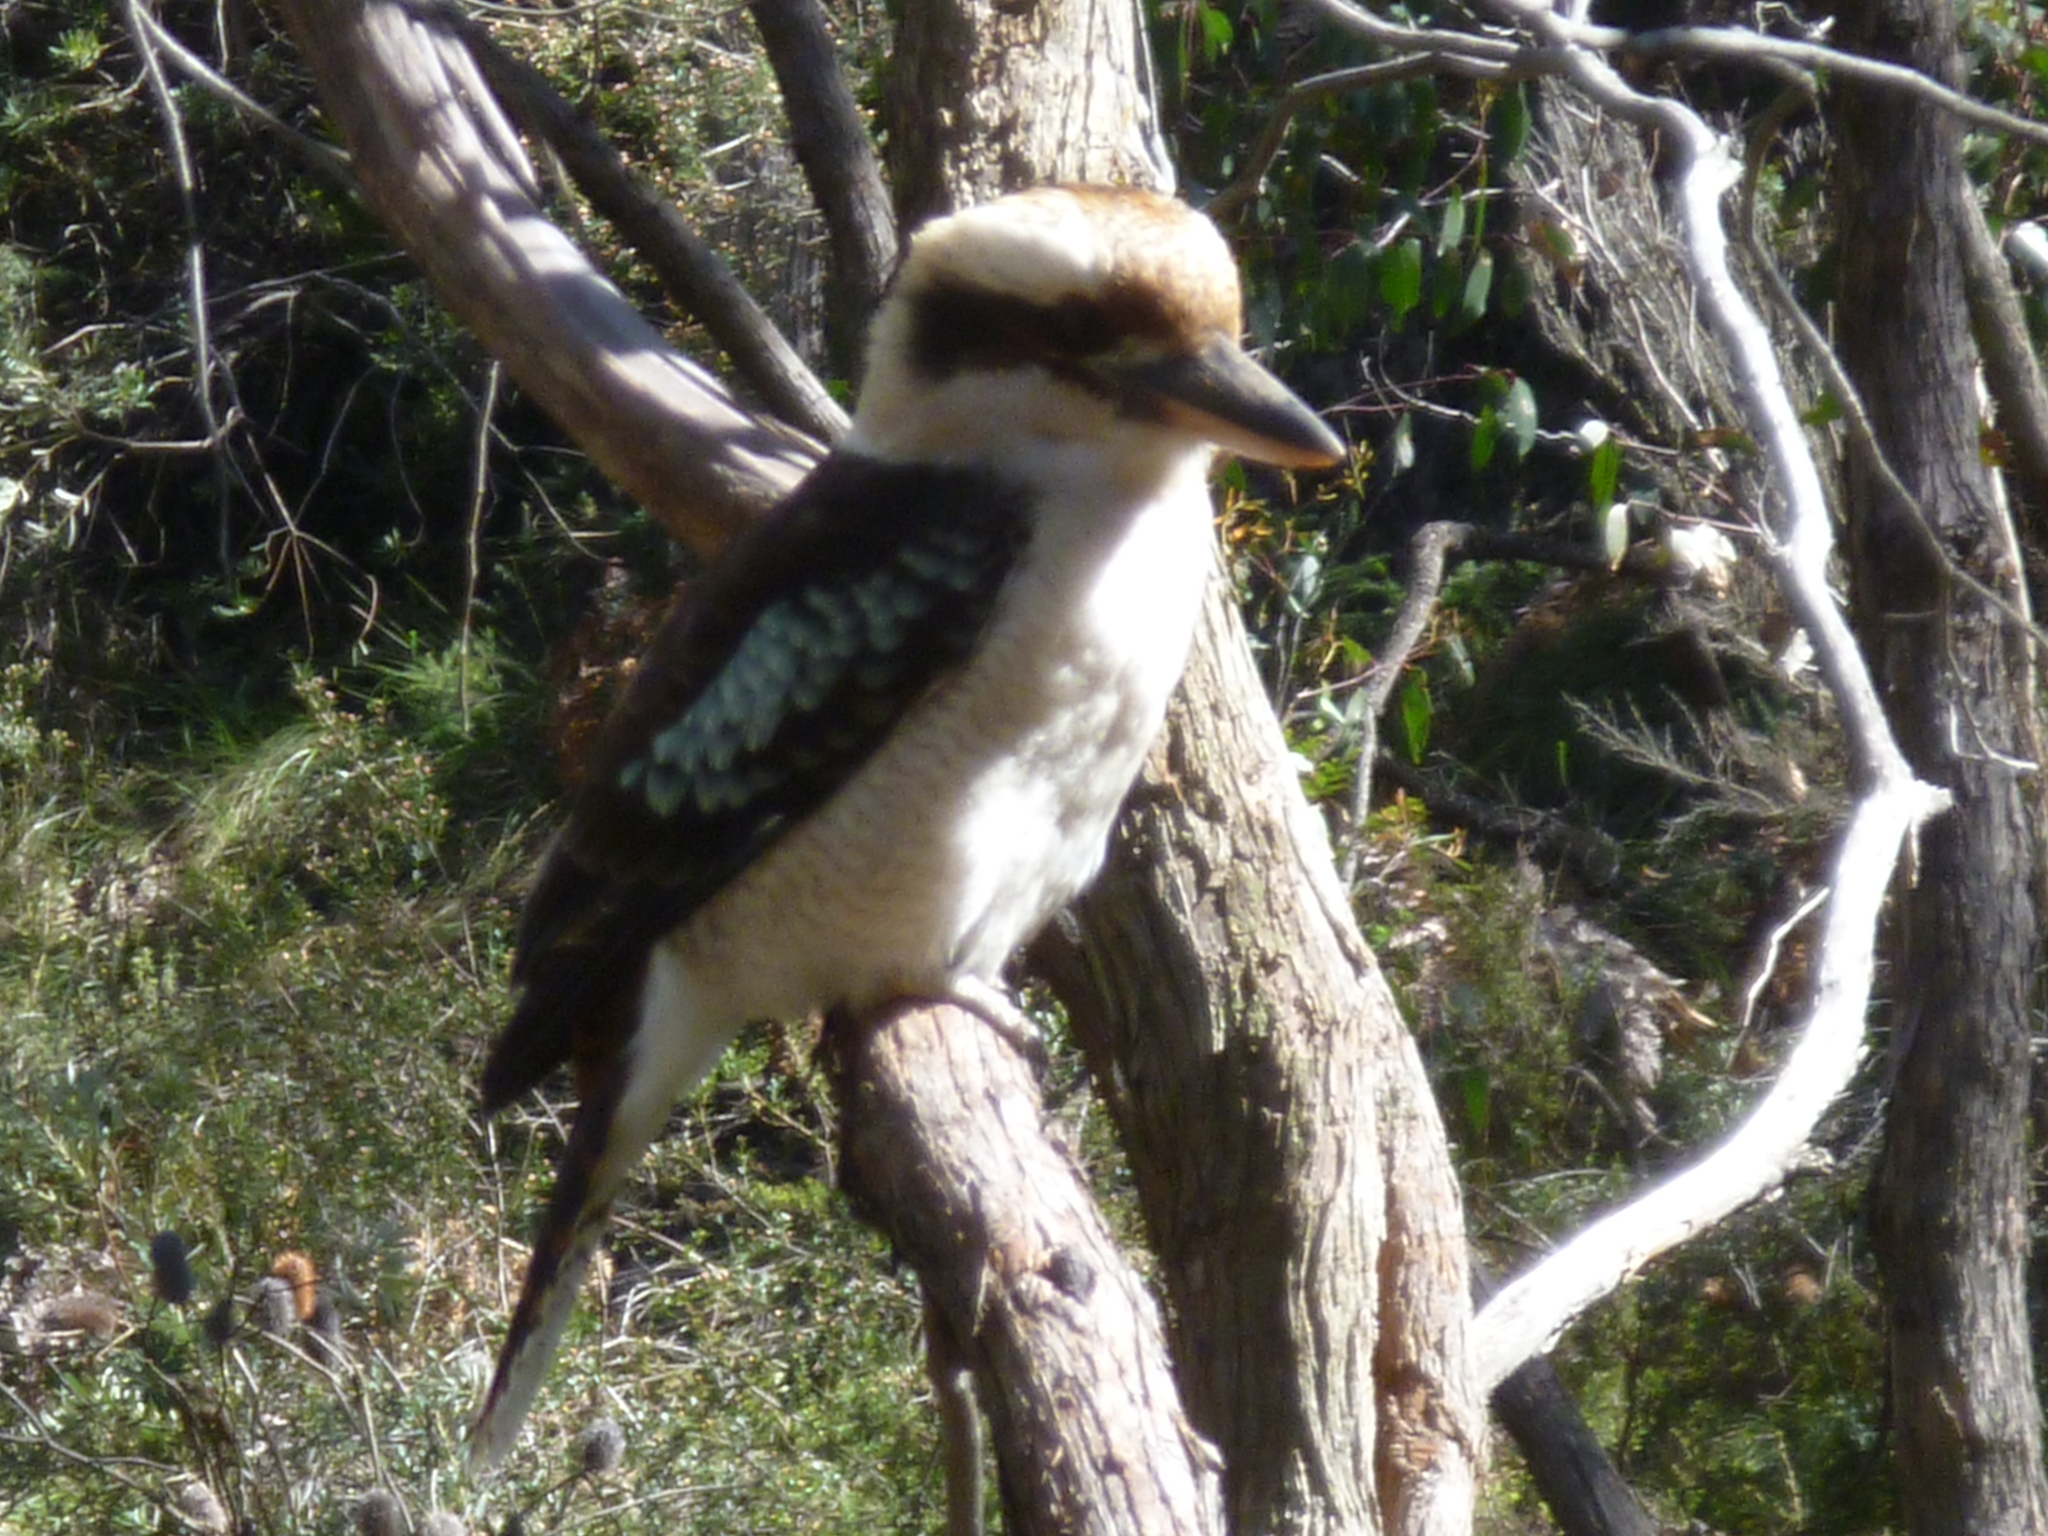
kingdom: Animalia
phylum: Chordata
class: Aves
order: Coraciiformes
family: Alcedinidae
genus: Dacelo
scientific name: Dacelo novaeguineae
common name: Laughing kookaburra
